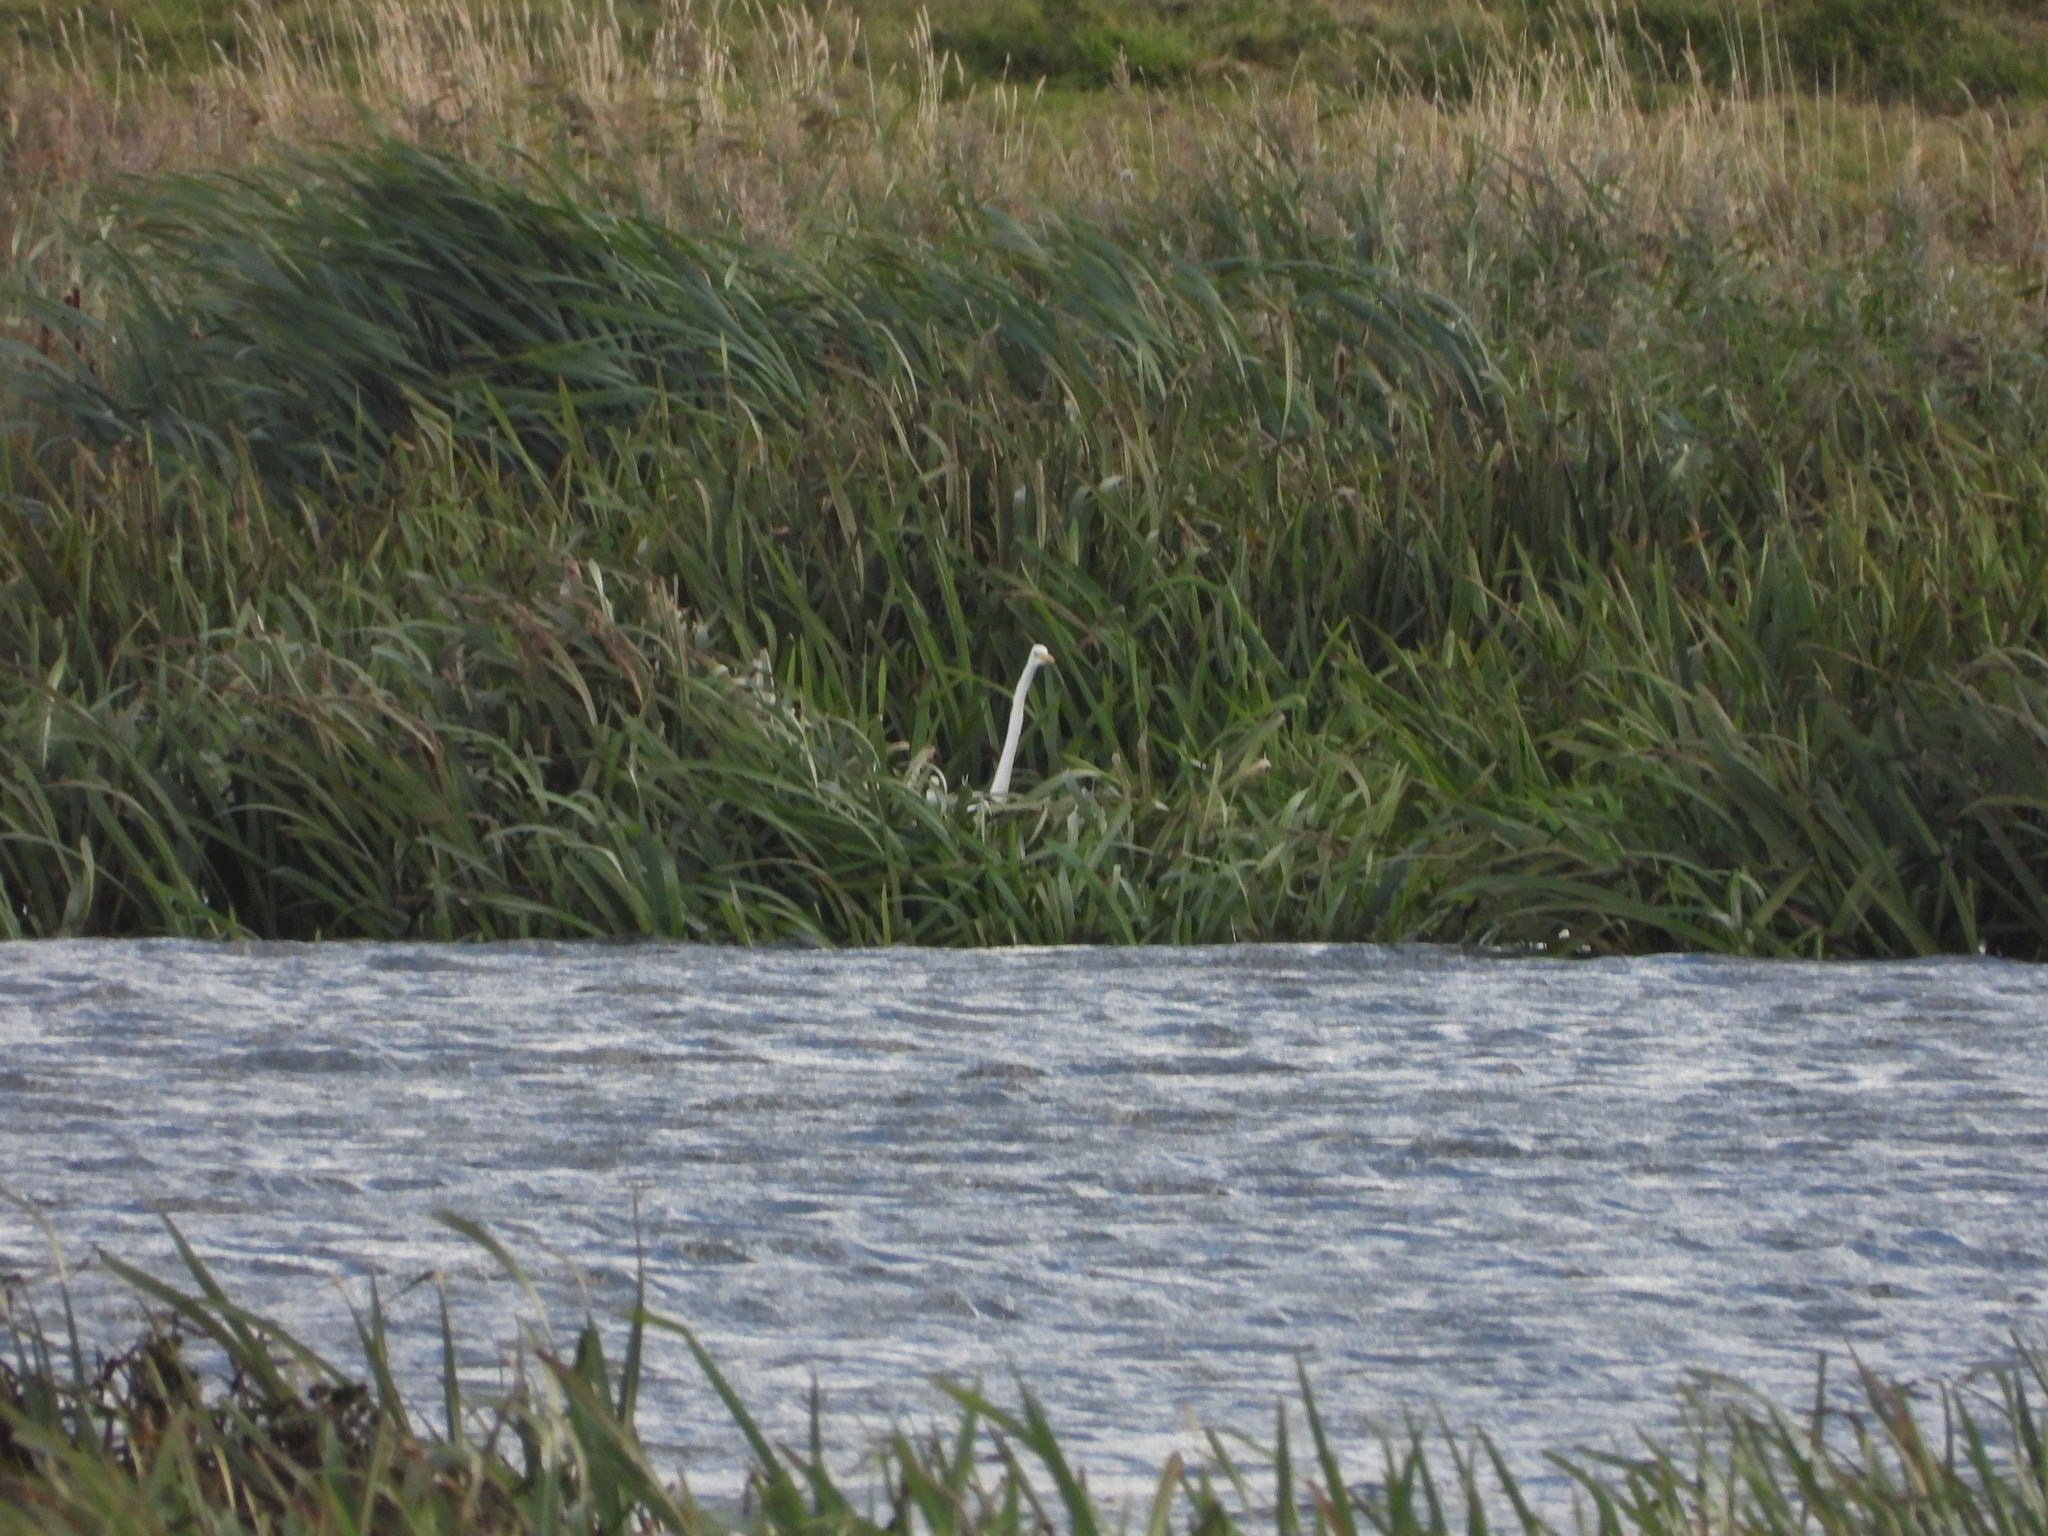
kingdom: Animalia
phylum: Chordata
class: Aves
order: Pelecaniformes
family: Ardeidae
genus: Ardea
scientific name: Ardea alba
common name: Great egret
